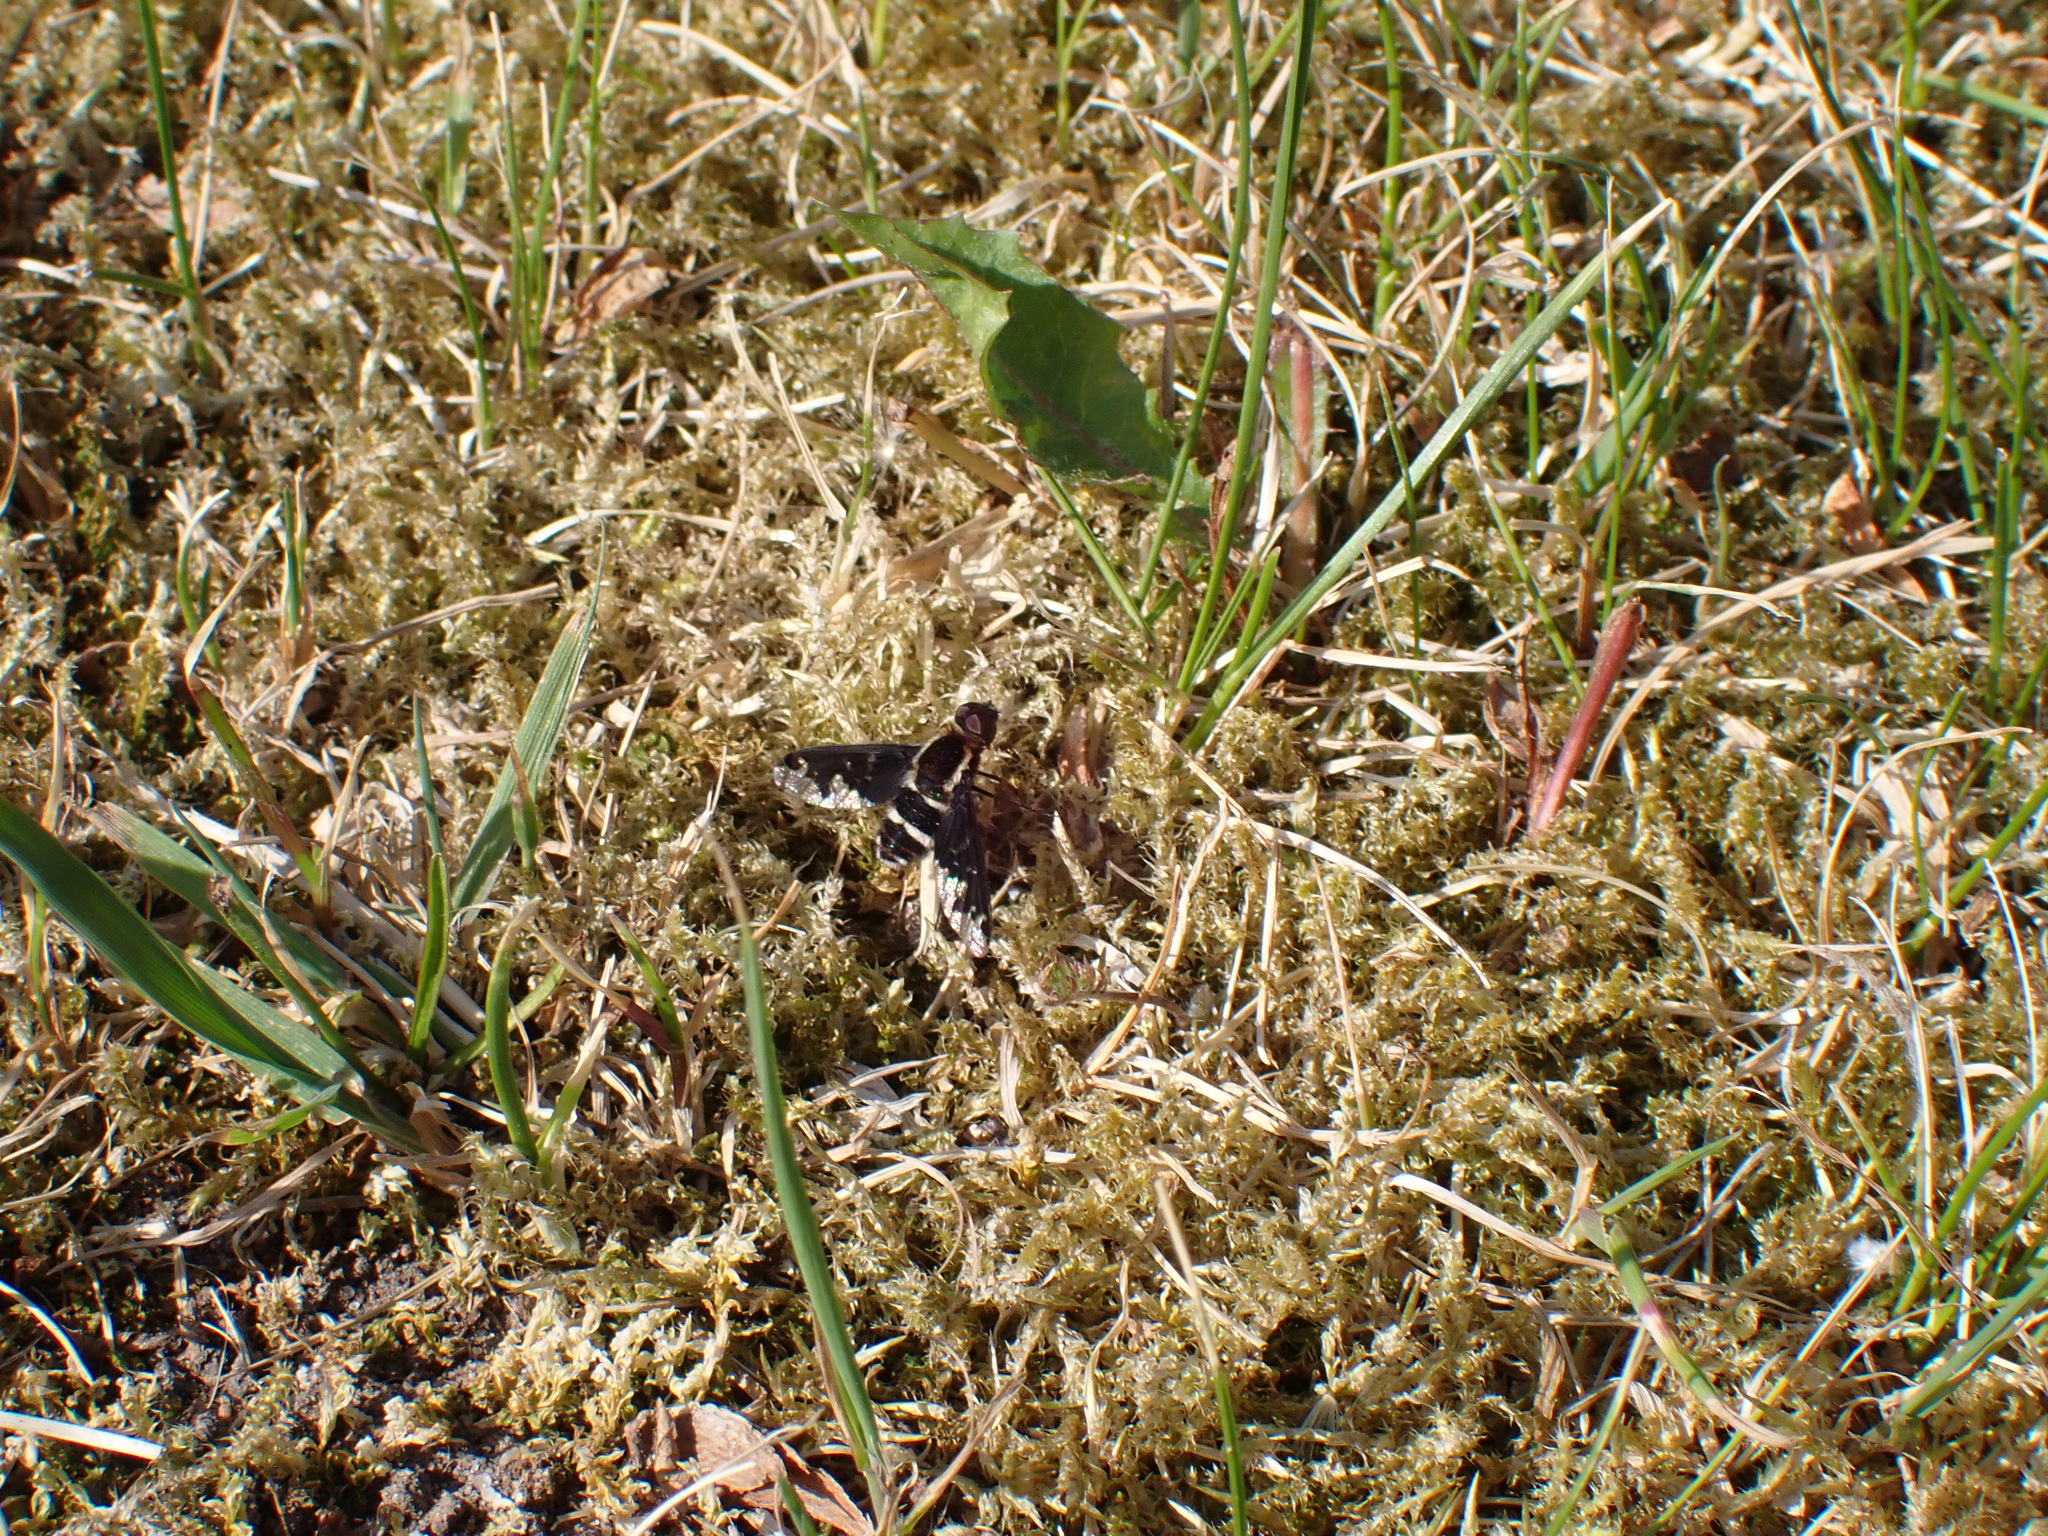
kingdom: Animalia
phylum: Arthropoda
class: Insecta
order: Diptera
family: Bombyliidae
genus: Hemipenthes
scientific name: Hemipenthes maura
